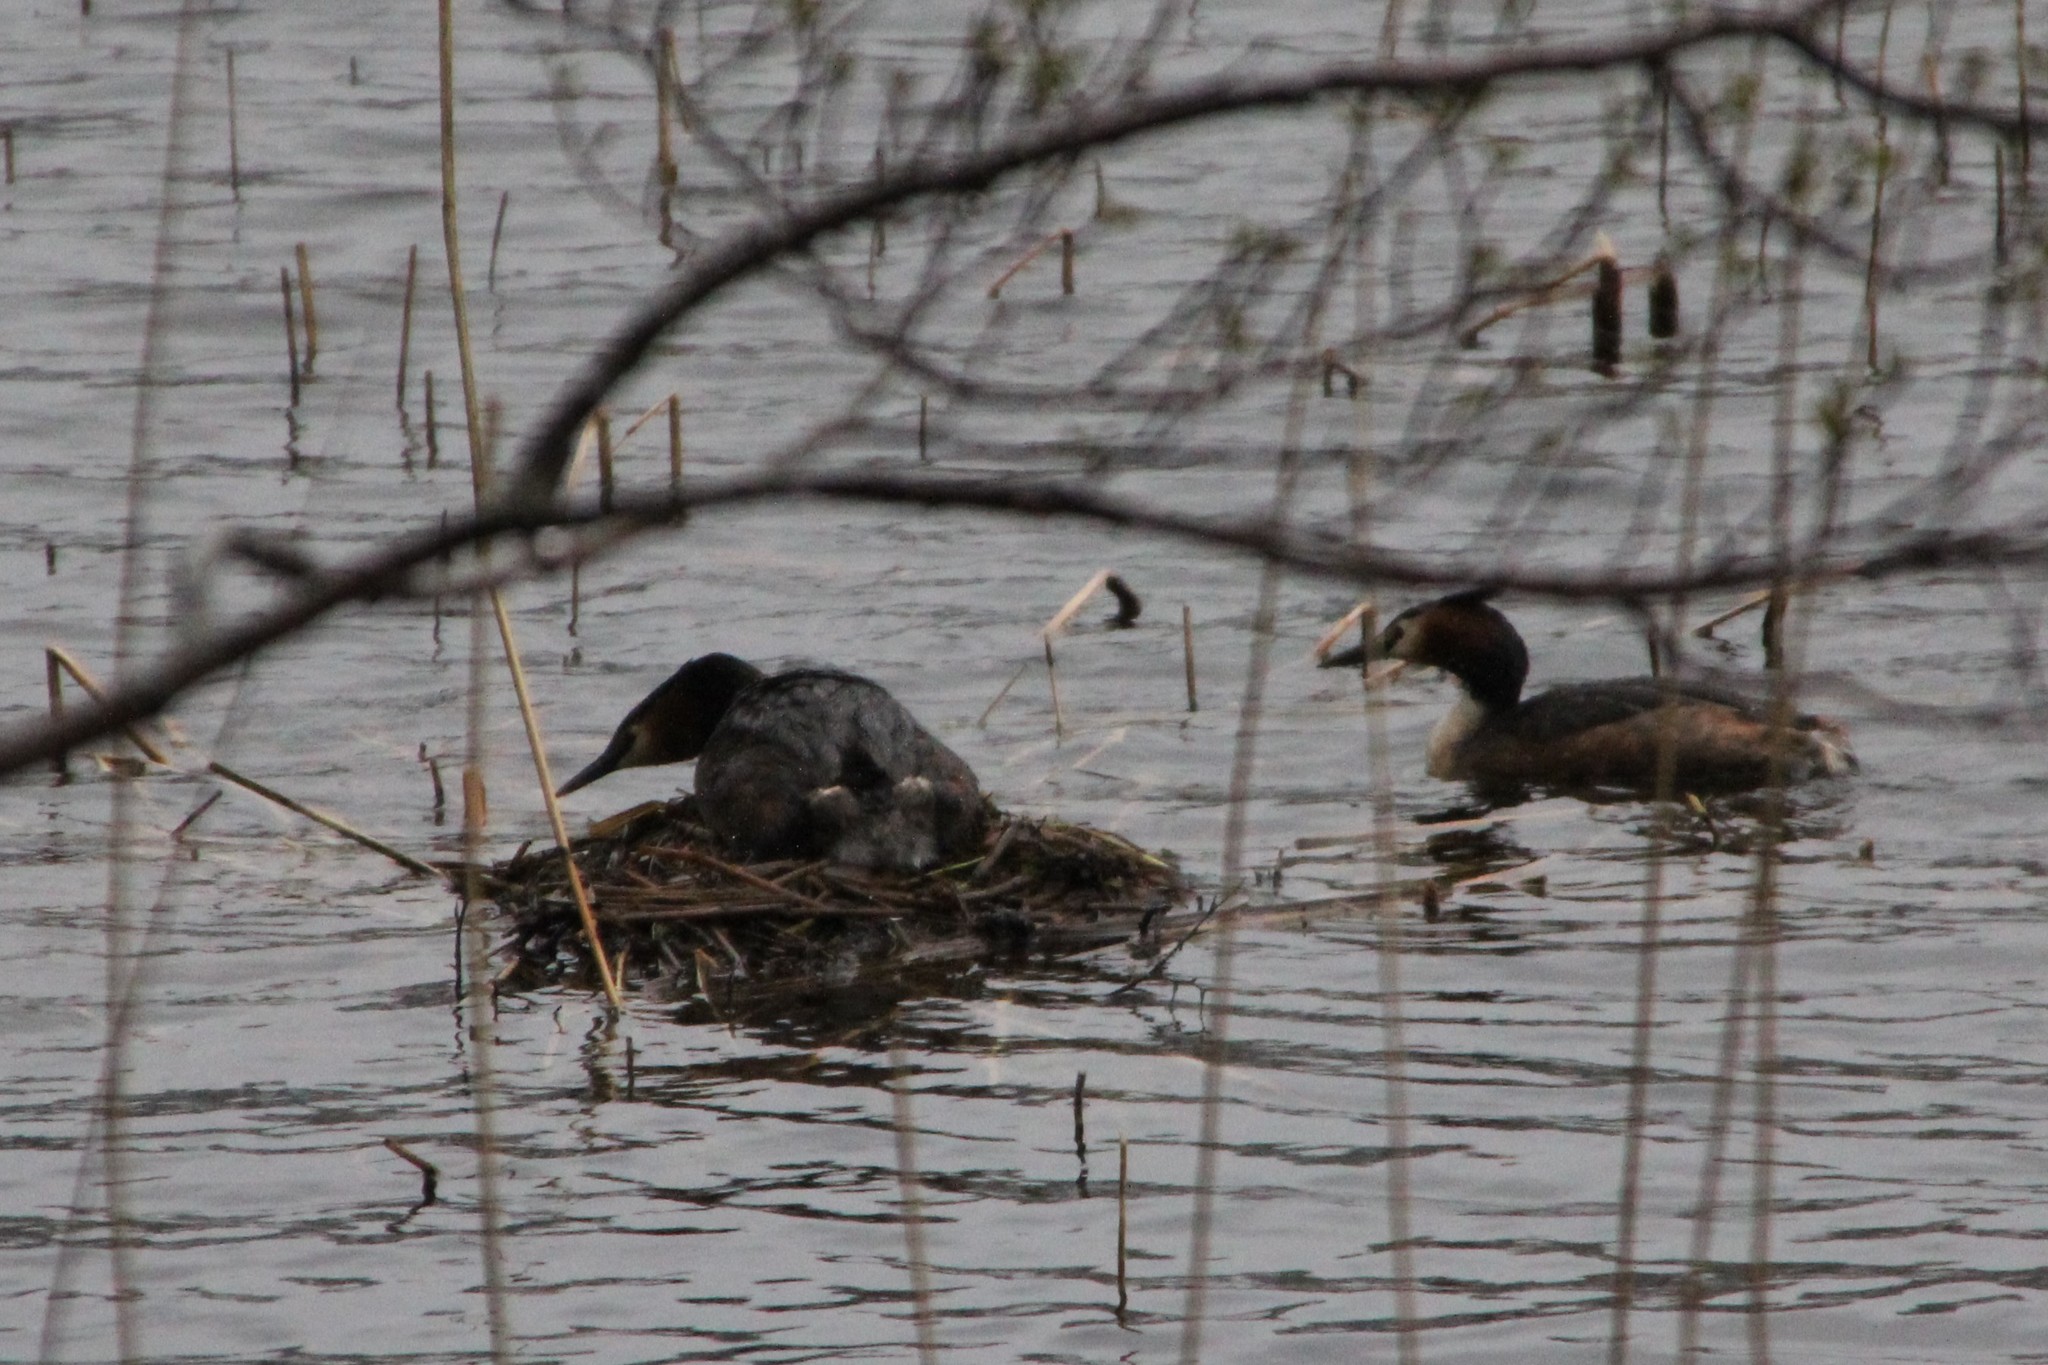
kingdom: Animalia
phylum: Chordata
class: Aves
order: Podicipediformes
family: Podicipedidae
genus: Podiceps
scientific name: Podiceps cristatus
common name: Great crested grebe
